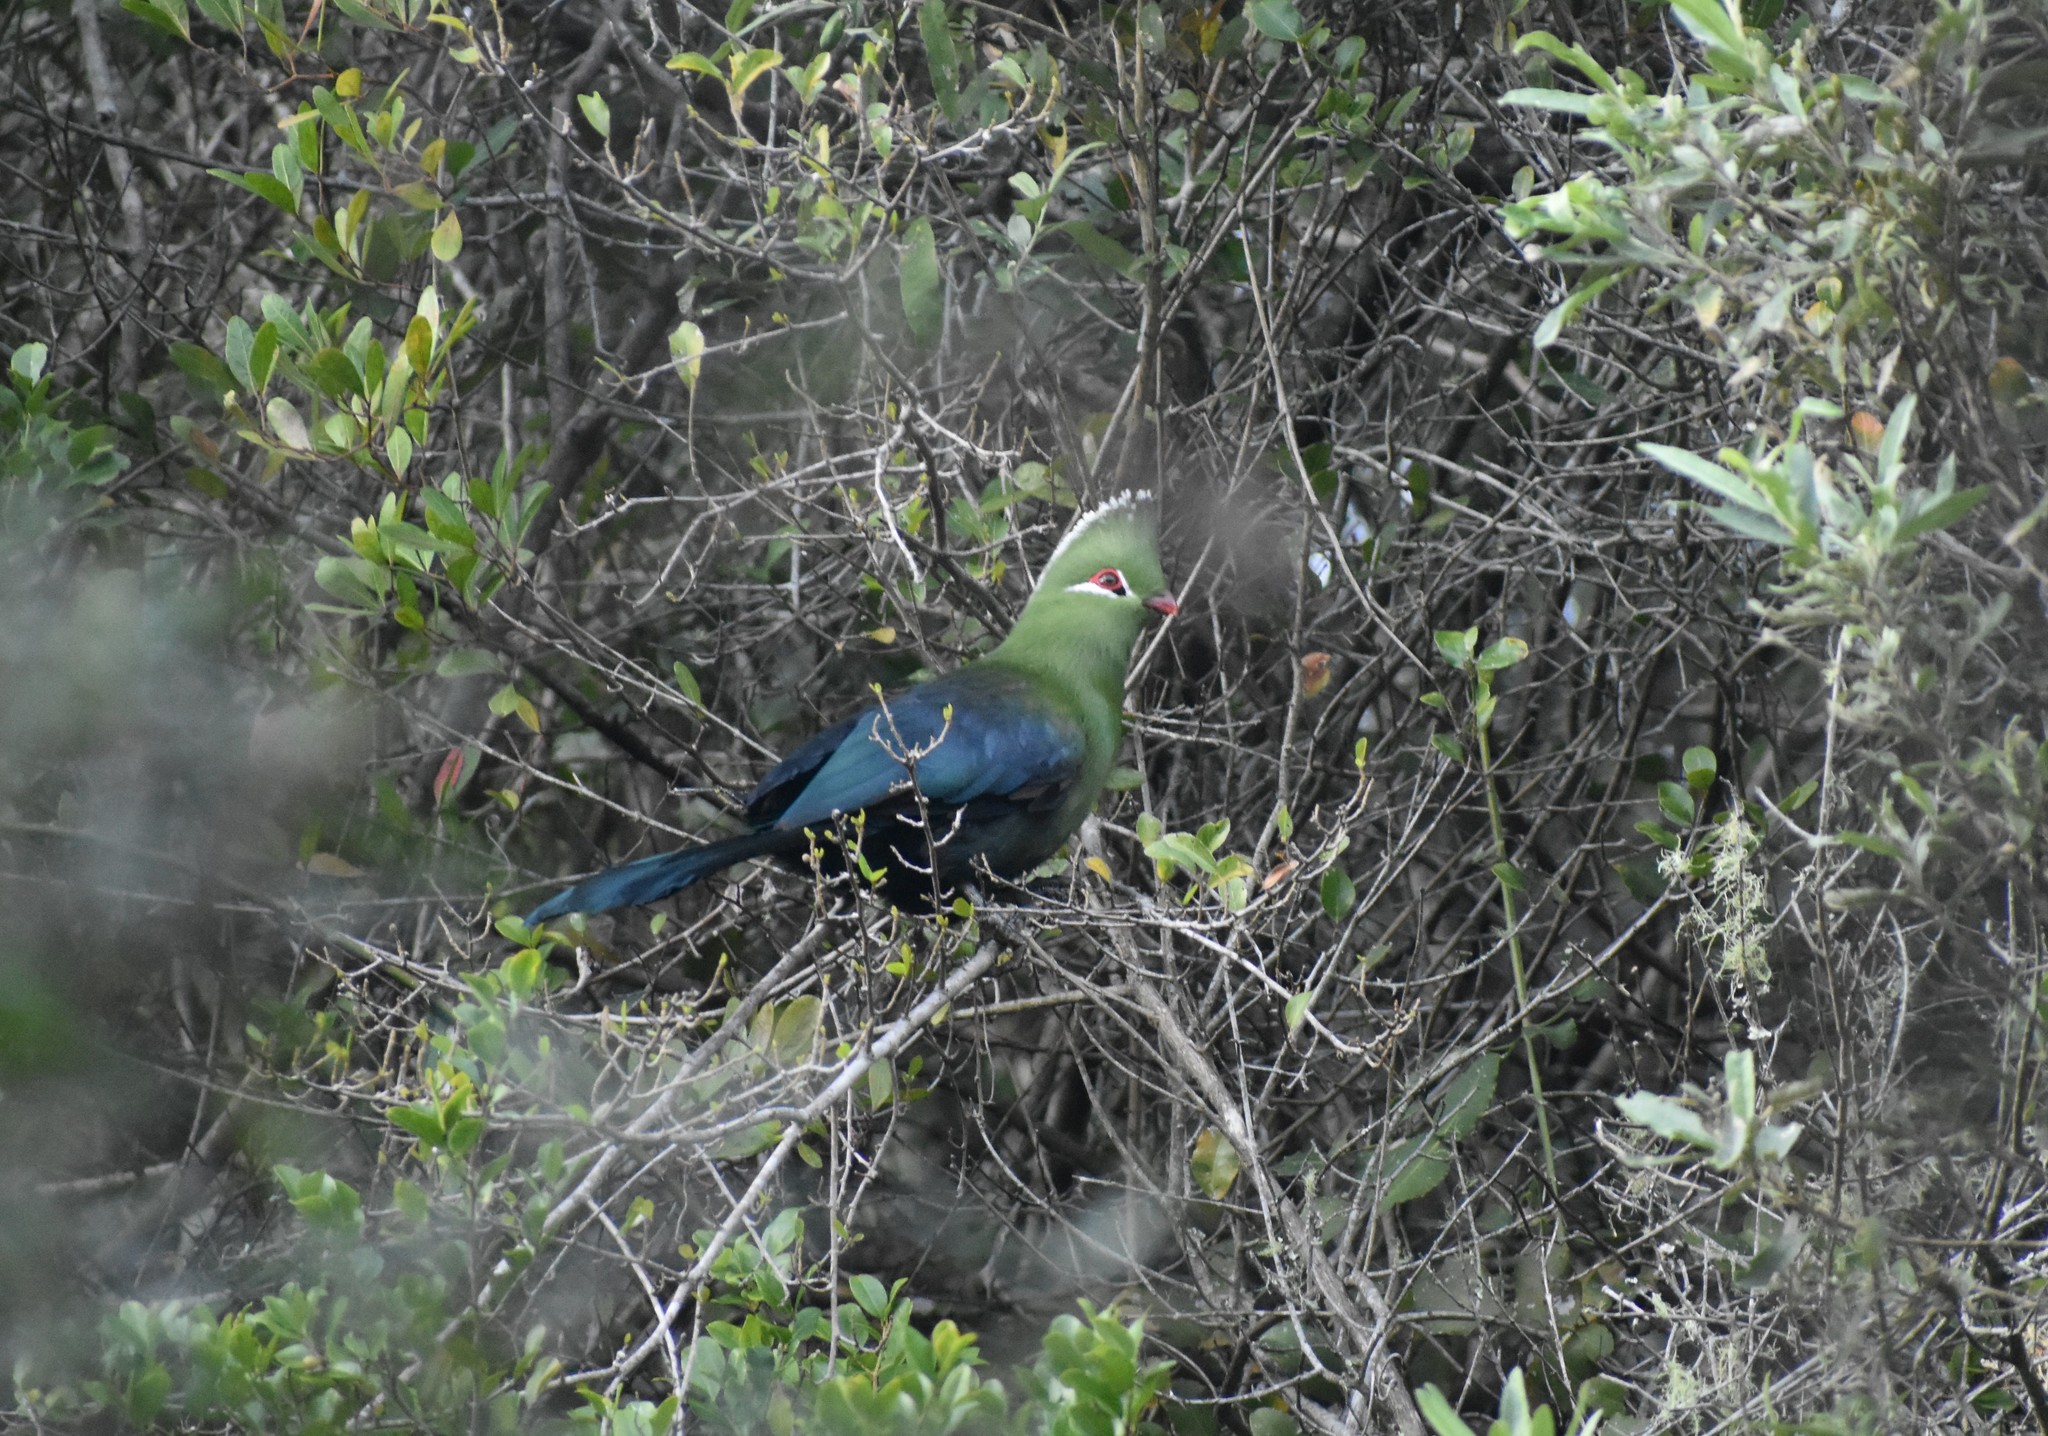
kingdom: Animalia
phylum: Chordata
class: Aves
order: Musophagiformes
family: Musophagidae
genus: Tauraco
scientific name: Tauraco corythaix
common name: Knysna turaco
